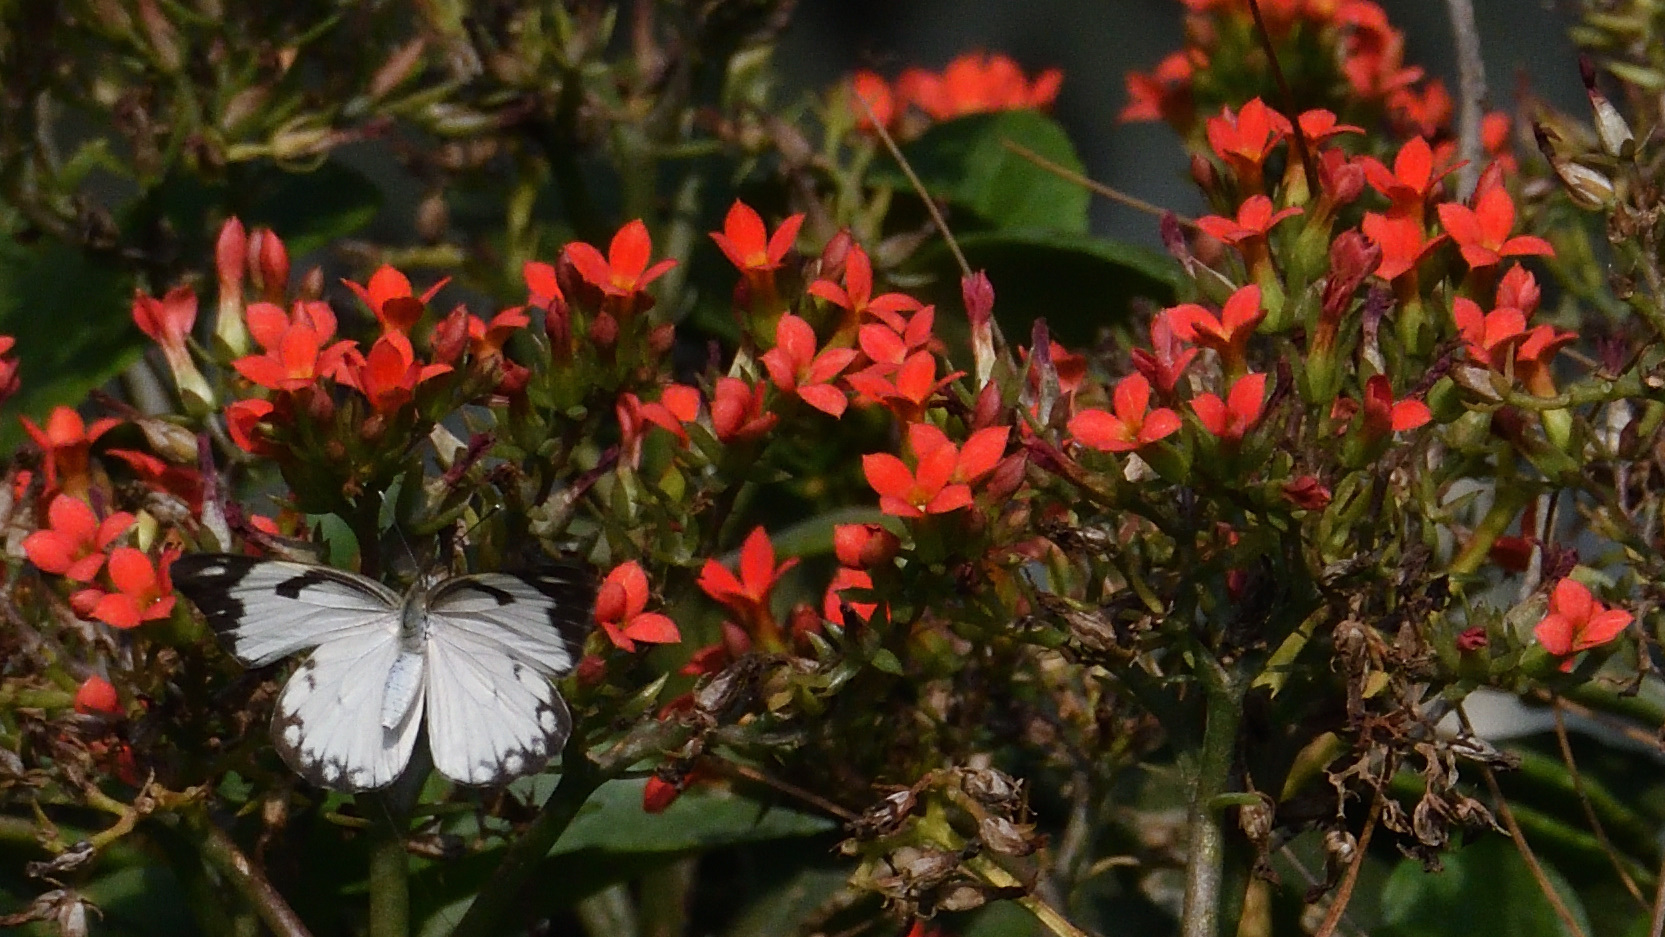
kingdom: Animalia
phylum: Arthropoda
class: Insecta
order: Lepidoptera
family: Pieridae
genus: Belenois
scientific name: Belenois aurota
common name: Brown-veined white
